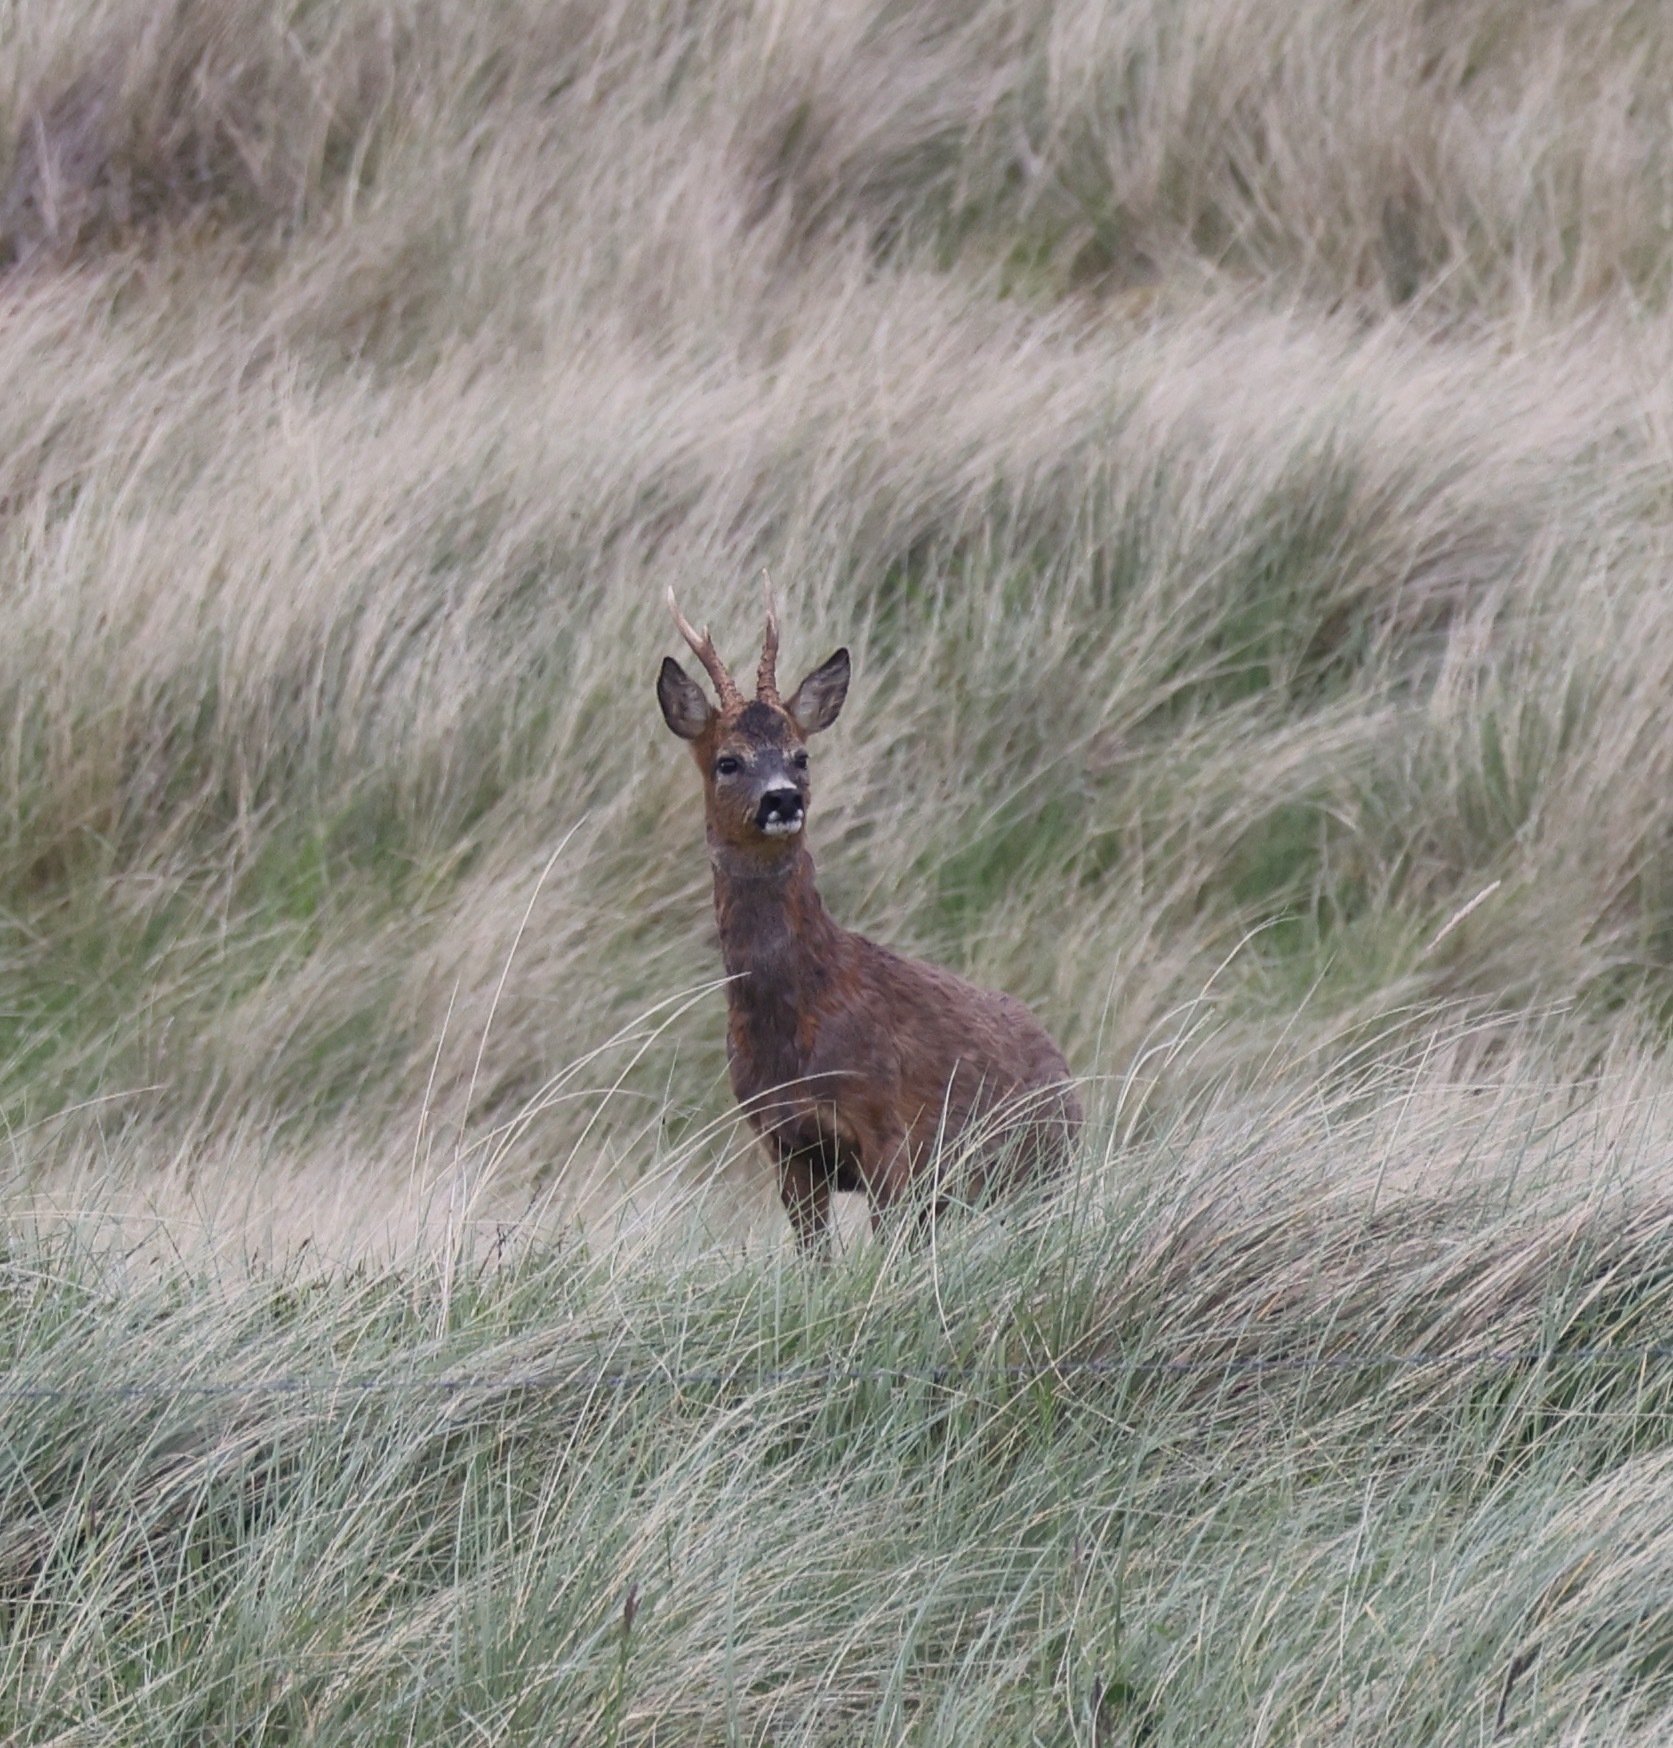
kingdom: Animalia
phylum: Chordata
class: Mammalia
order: Artiodactyla
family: Cervidae
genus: Capreolus
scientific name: Capreolus capreolus
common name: Western roe deer
